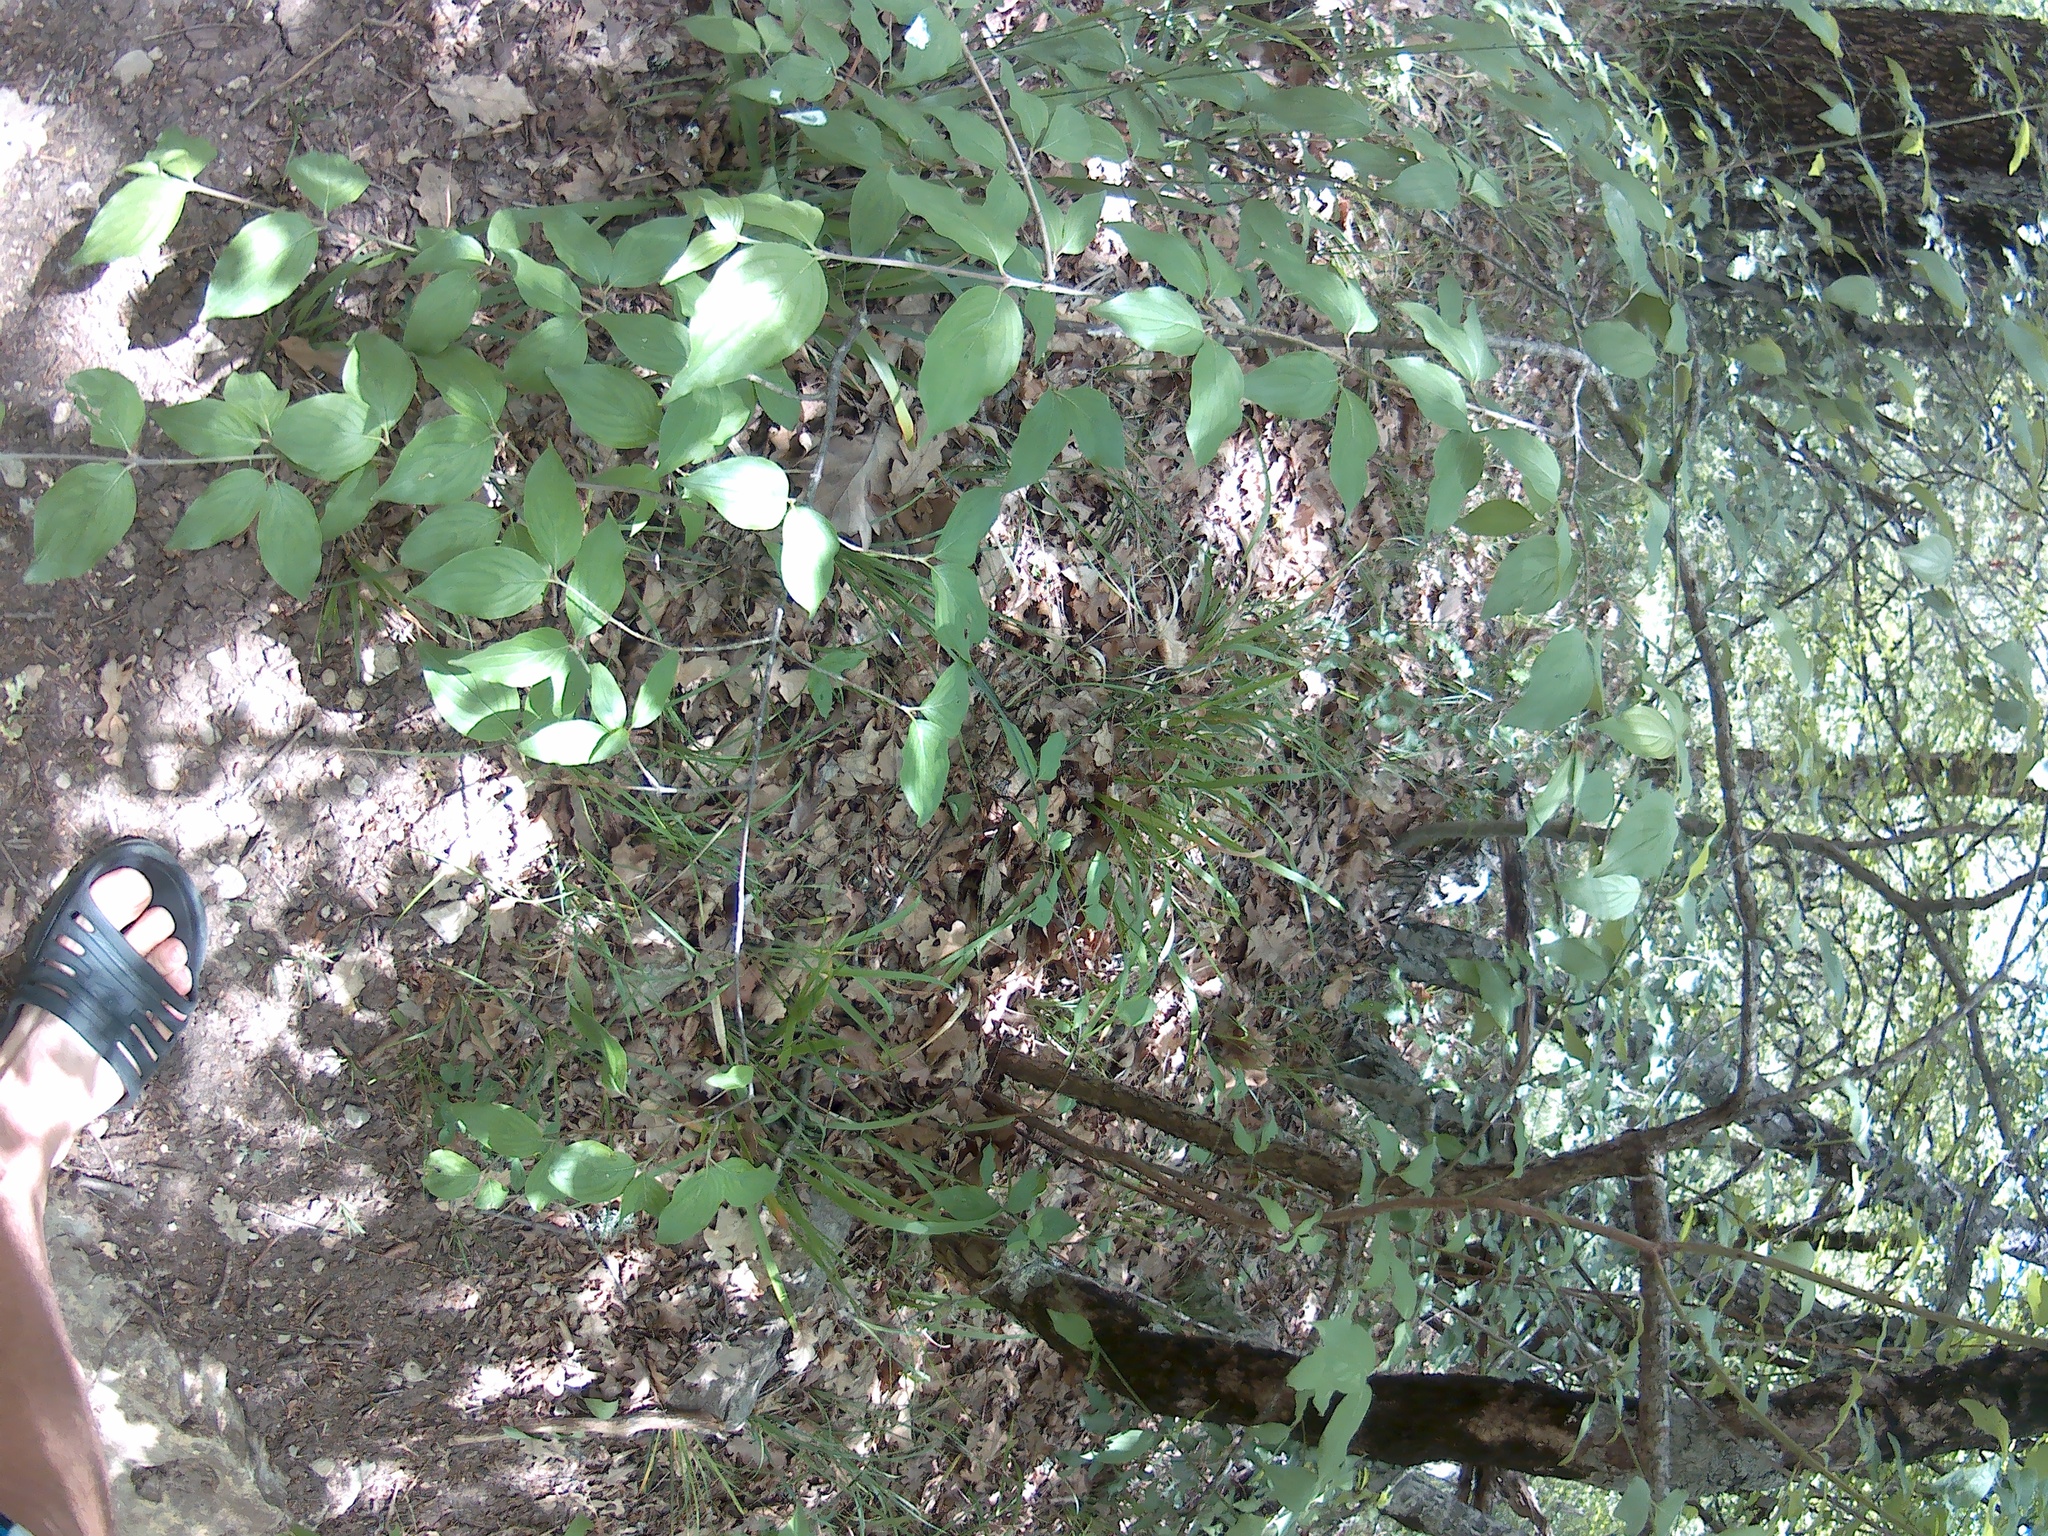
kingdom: Plantae
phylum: Tracheophyta
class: Magnoliopsida
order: Cornales
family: Cornaceae
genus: Cornus
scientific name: Cornus mas
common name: Cornelian-cherry
